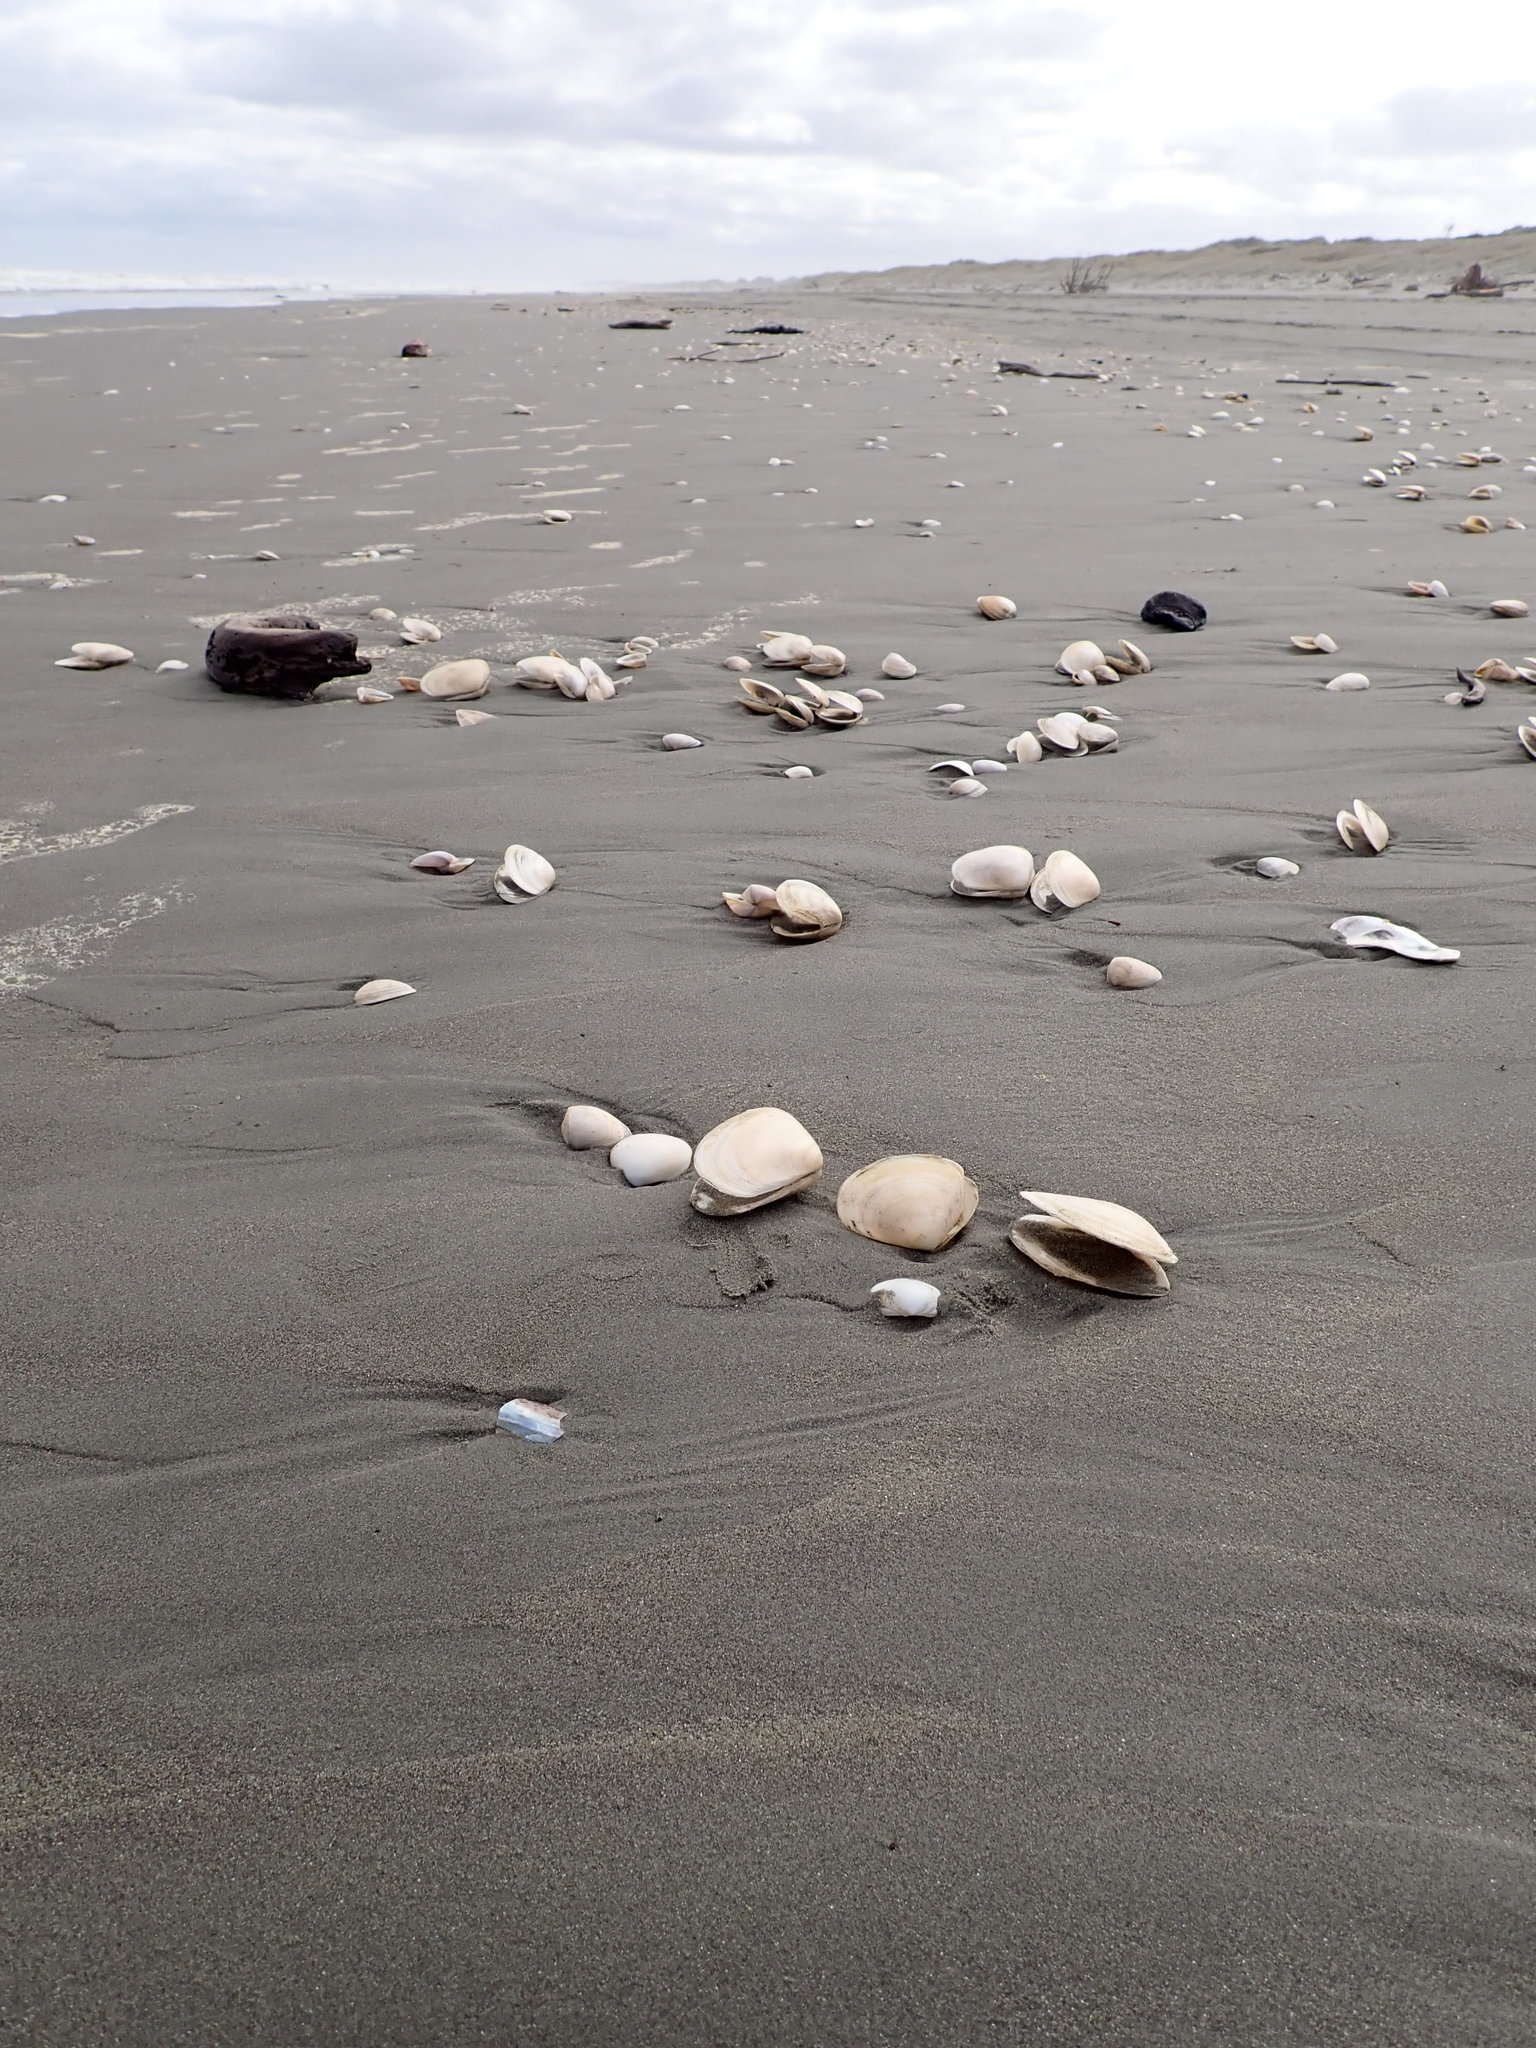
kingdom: Animalia
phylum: Mollusca
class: Bivalvia
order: Venerida
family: Mesodesmatidae
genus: Paphies
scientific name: Paphies donacina
